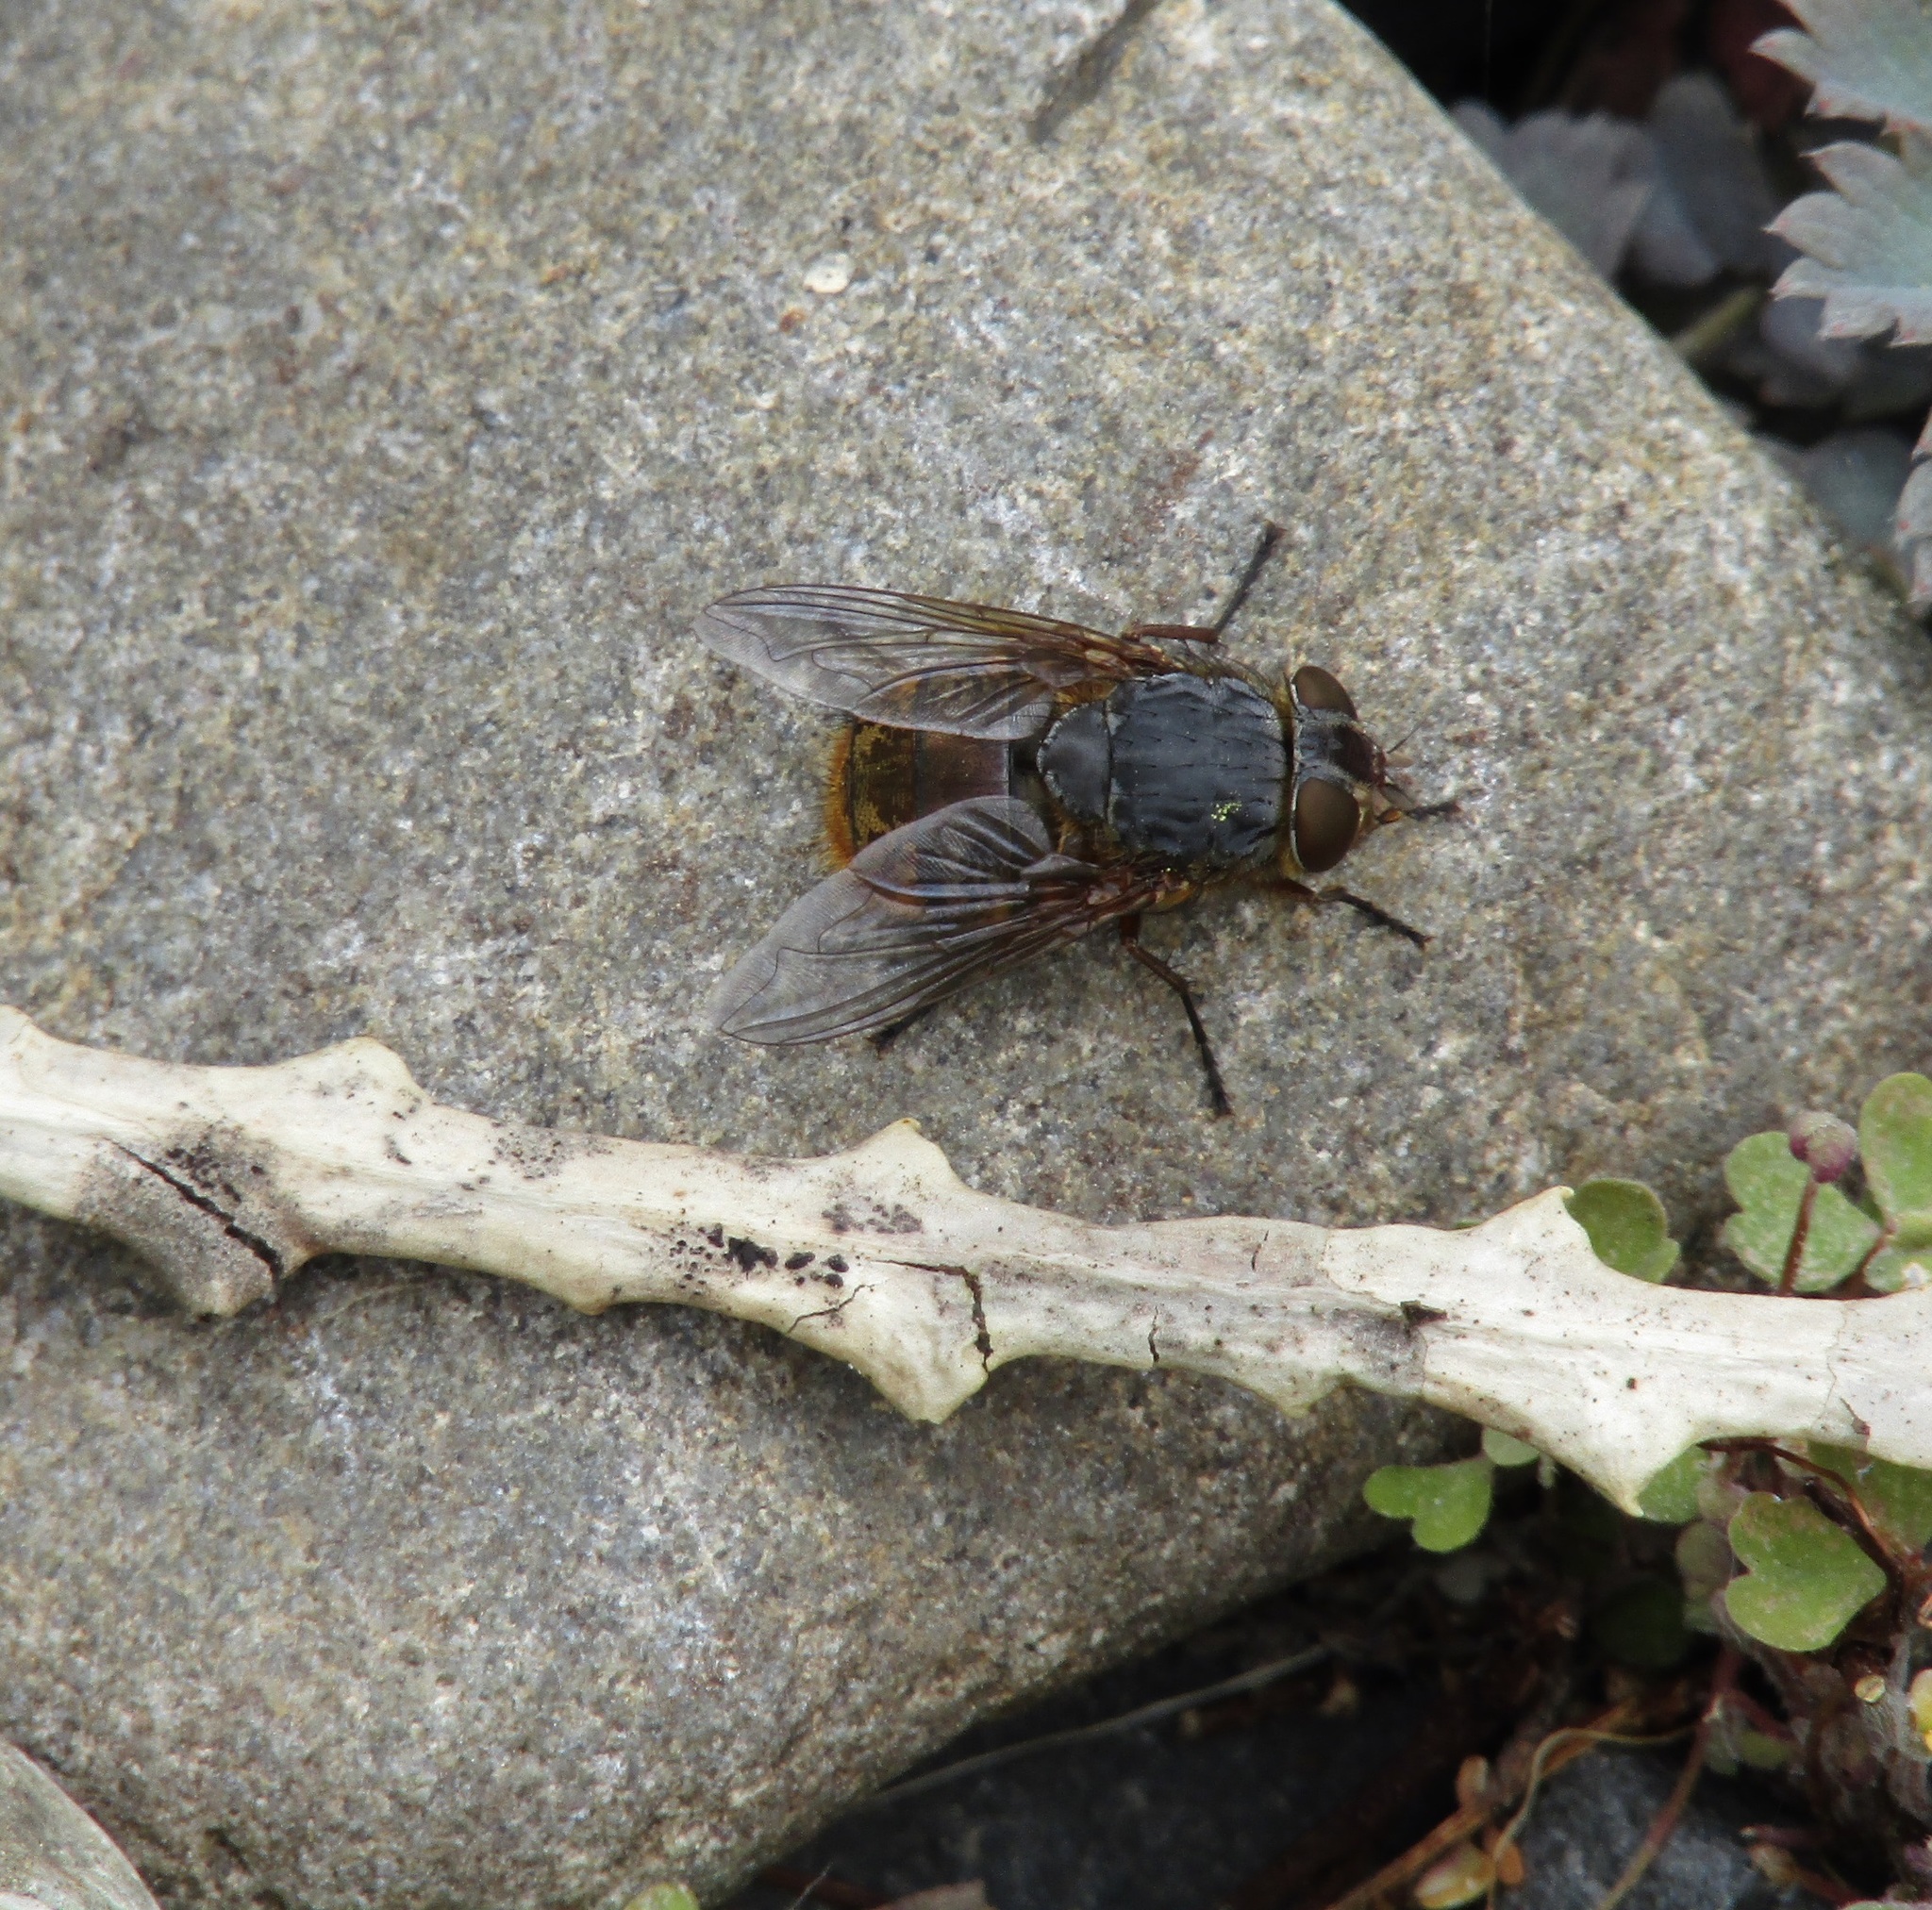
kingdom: Animalia
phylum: Arthropoda
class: Insecta
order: Diptera
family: Calliphoridae
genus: Calliphora
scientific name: Calliphora stygia
